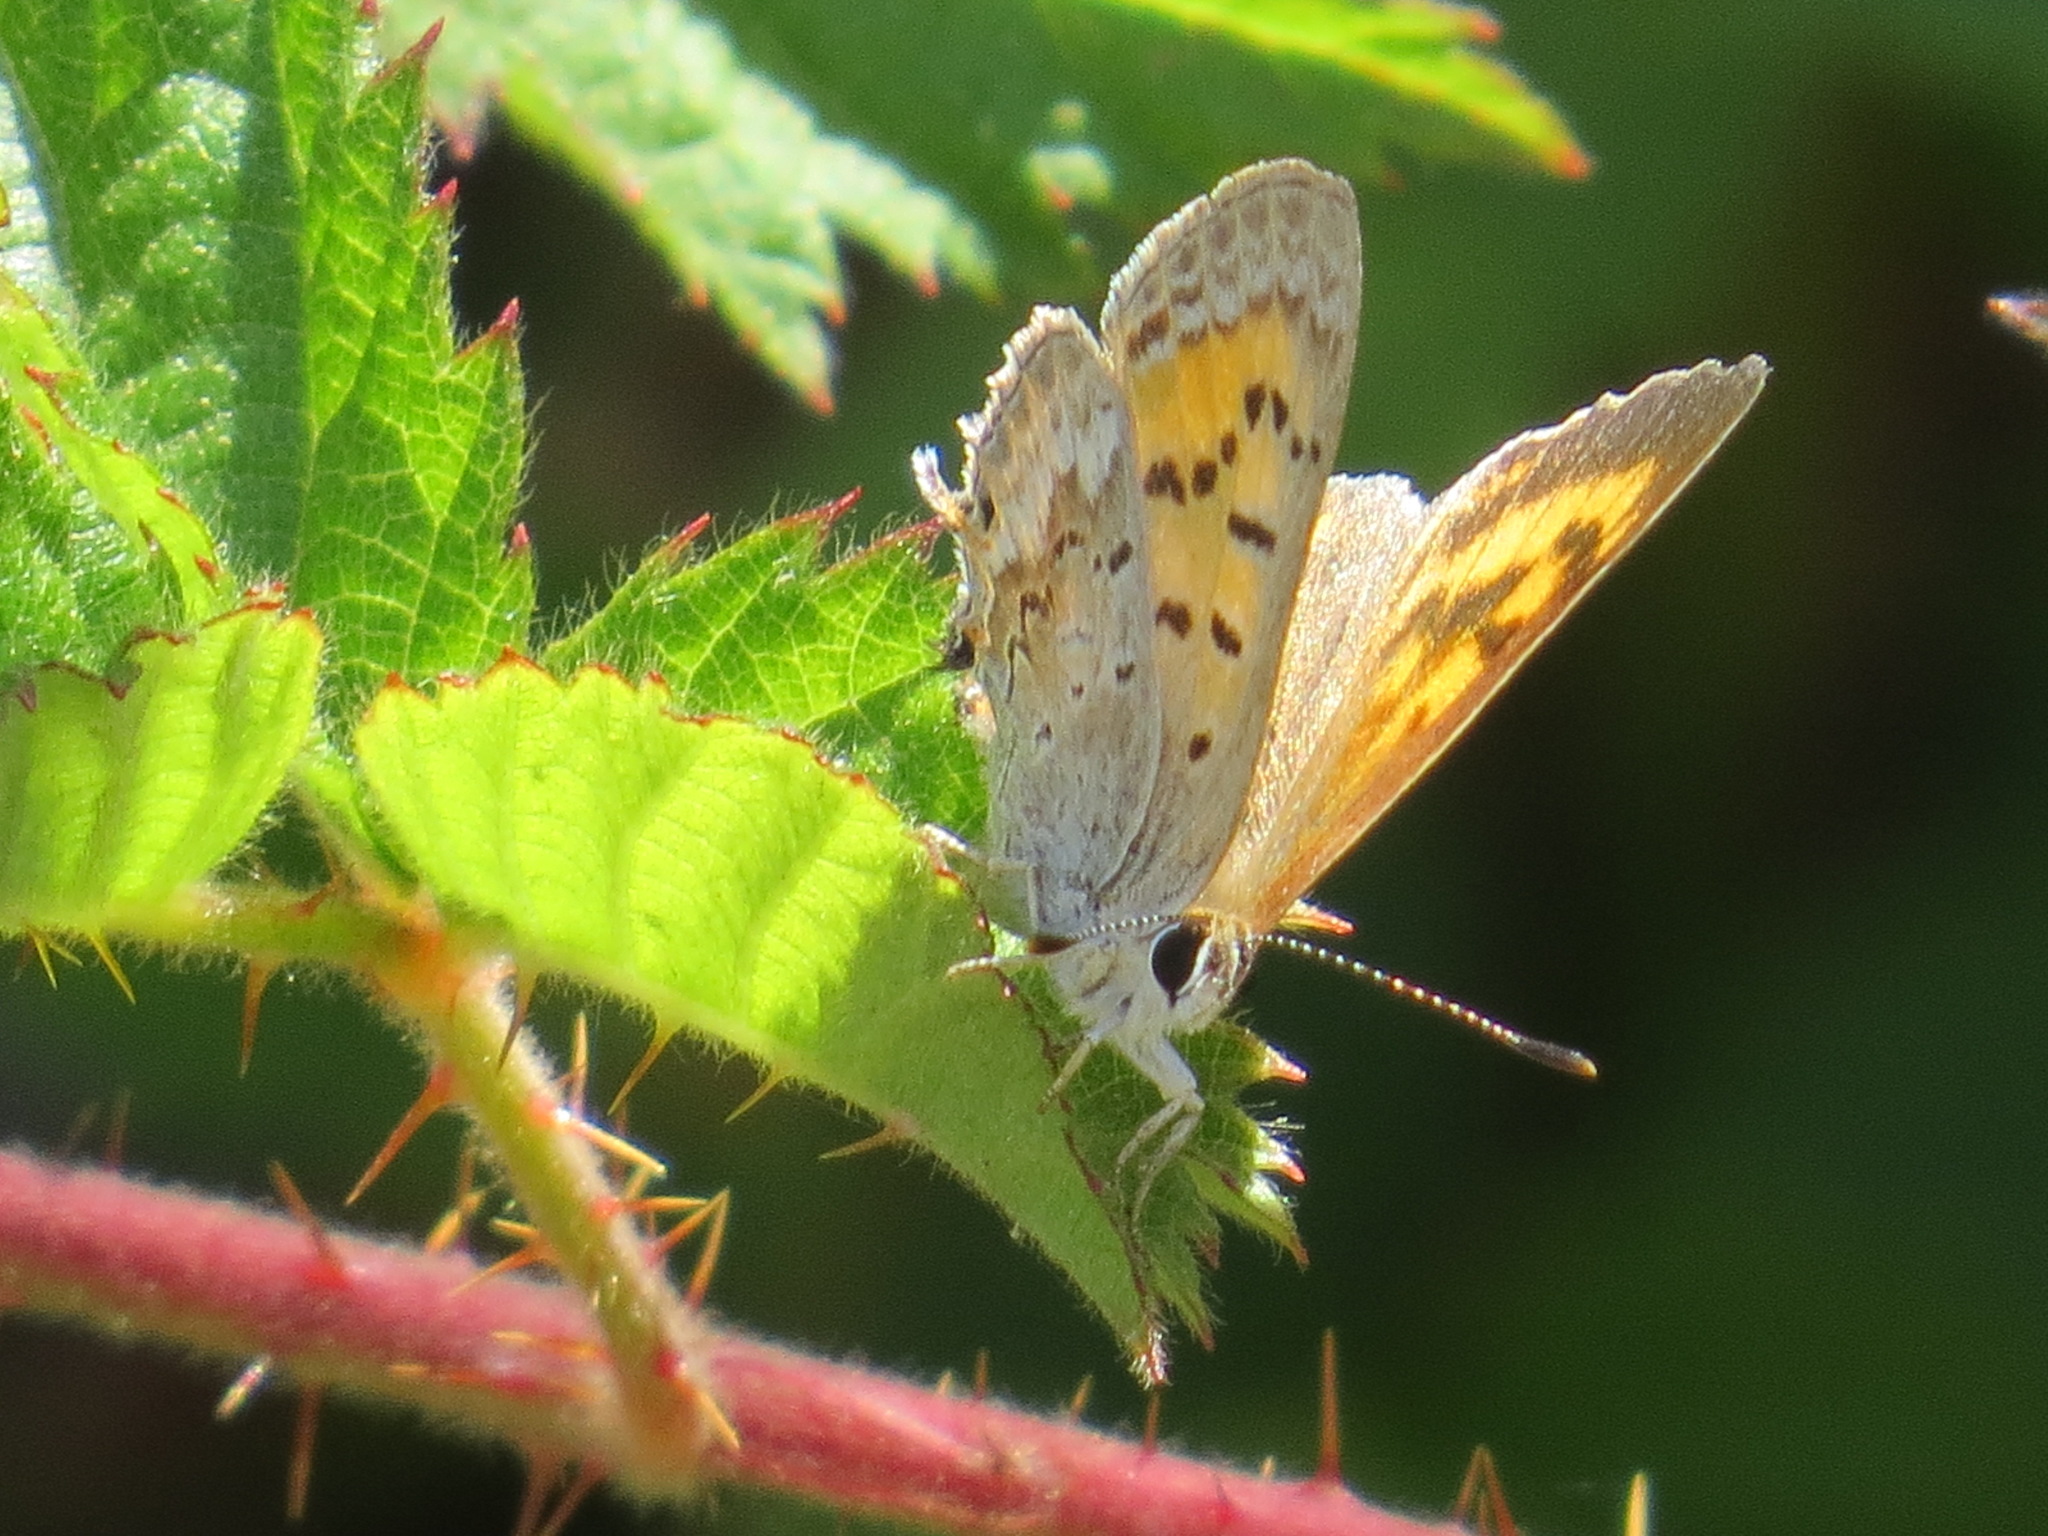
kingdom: Animalia
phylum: Arthropoda
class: Insecta
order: Lepidoptera
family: Lycaenidae
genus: Tharsalea
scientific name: Tharsalea arota
